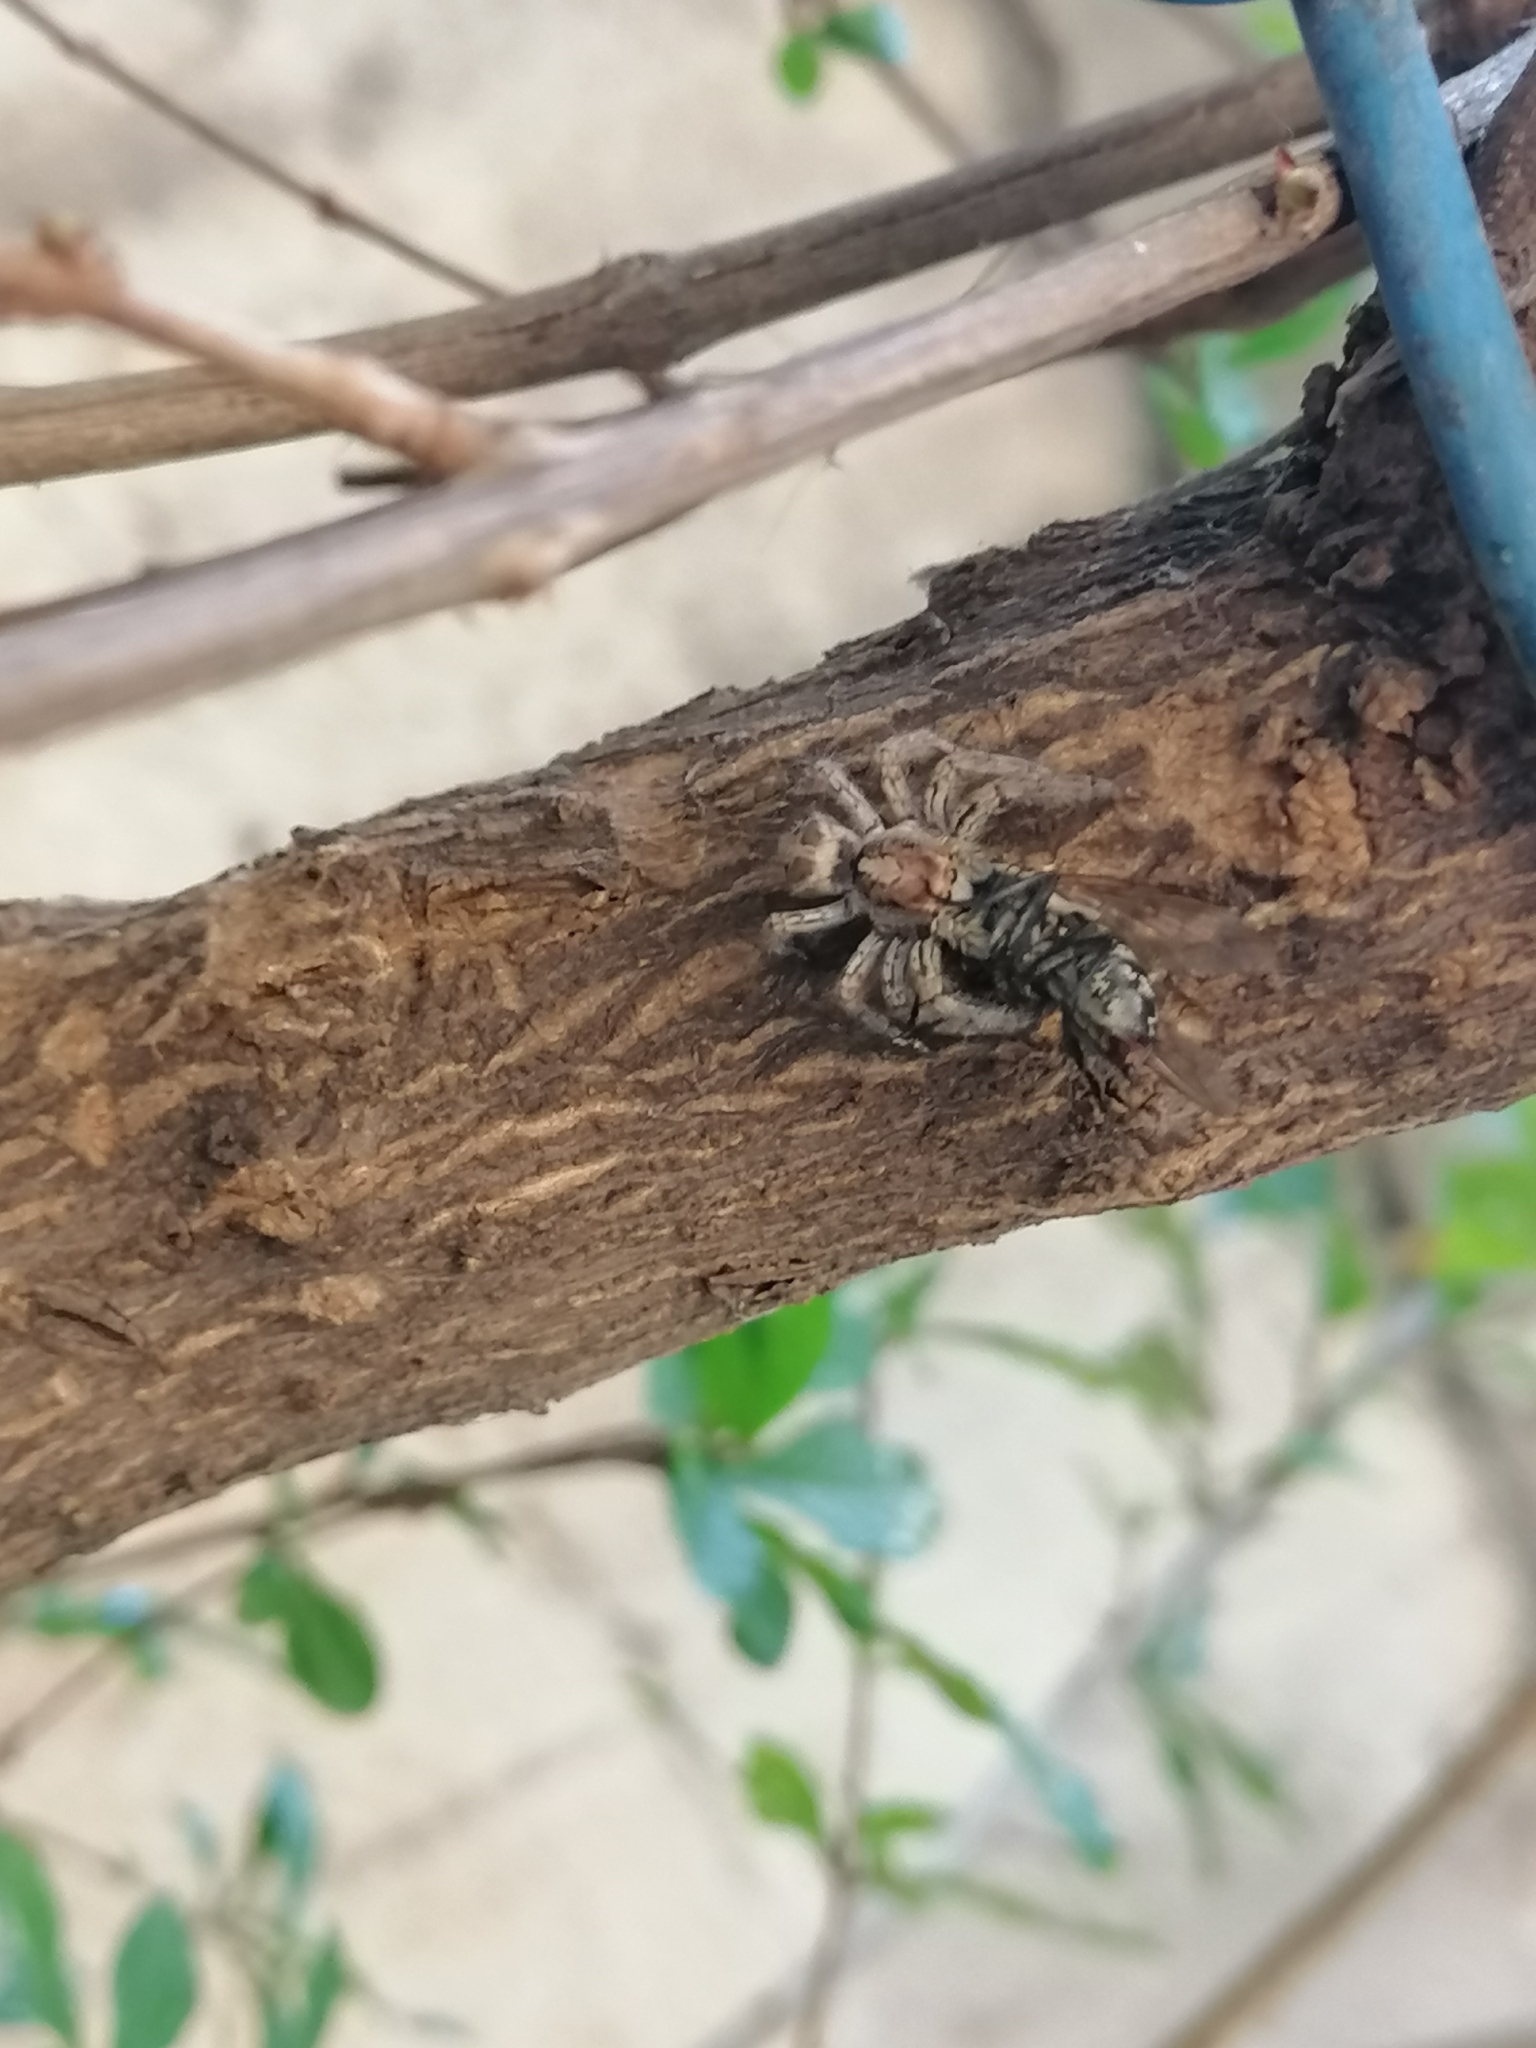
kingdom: Animalia
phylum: Arthropoda
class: Arachnida
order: Araneae
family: Salticidae
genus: Plexippus
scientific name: Plexippus paykulli
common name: Pantropical jumper
